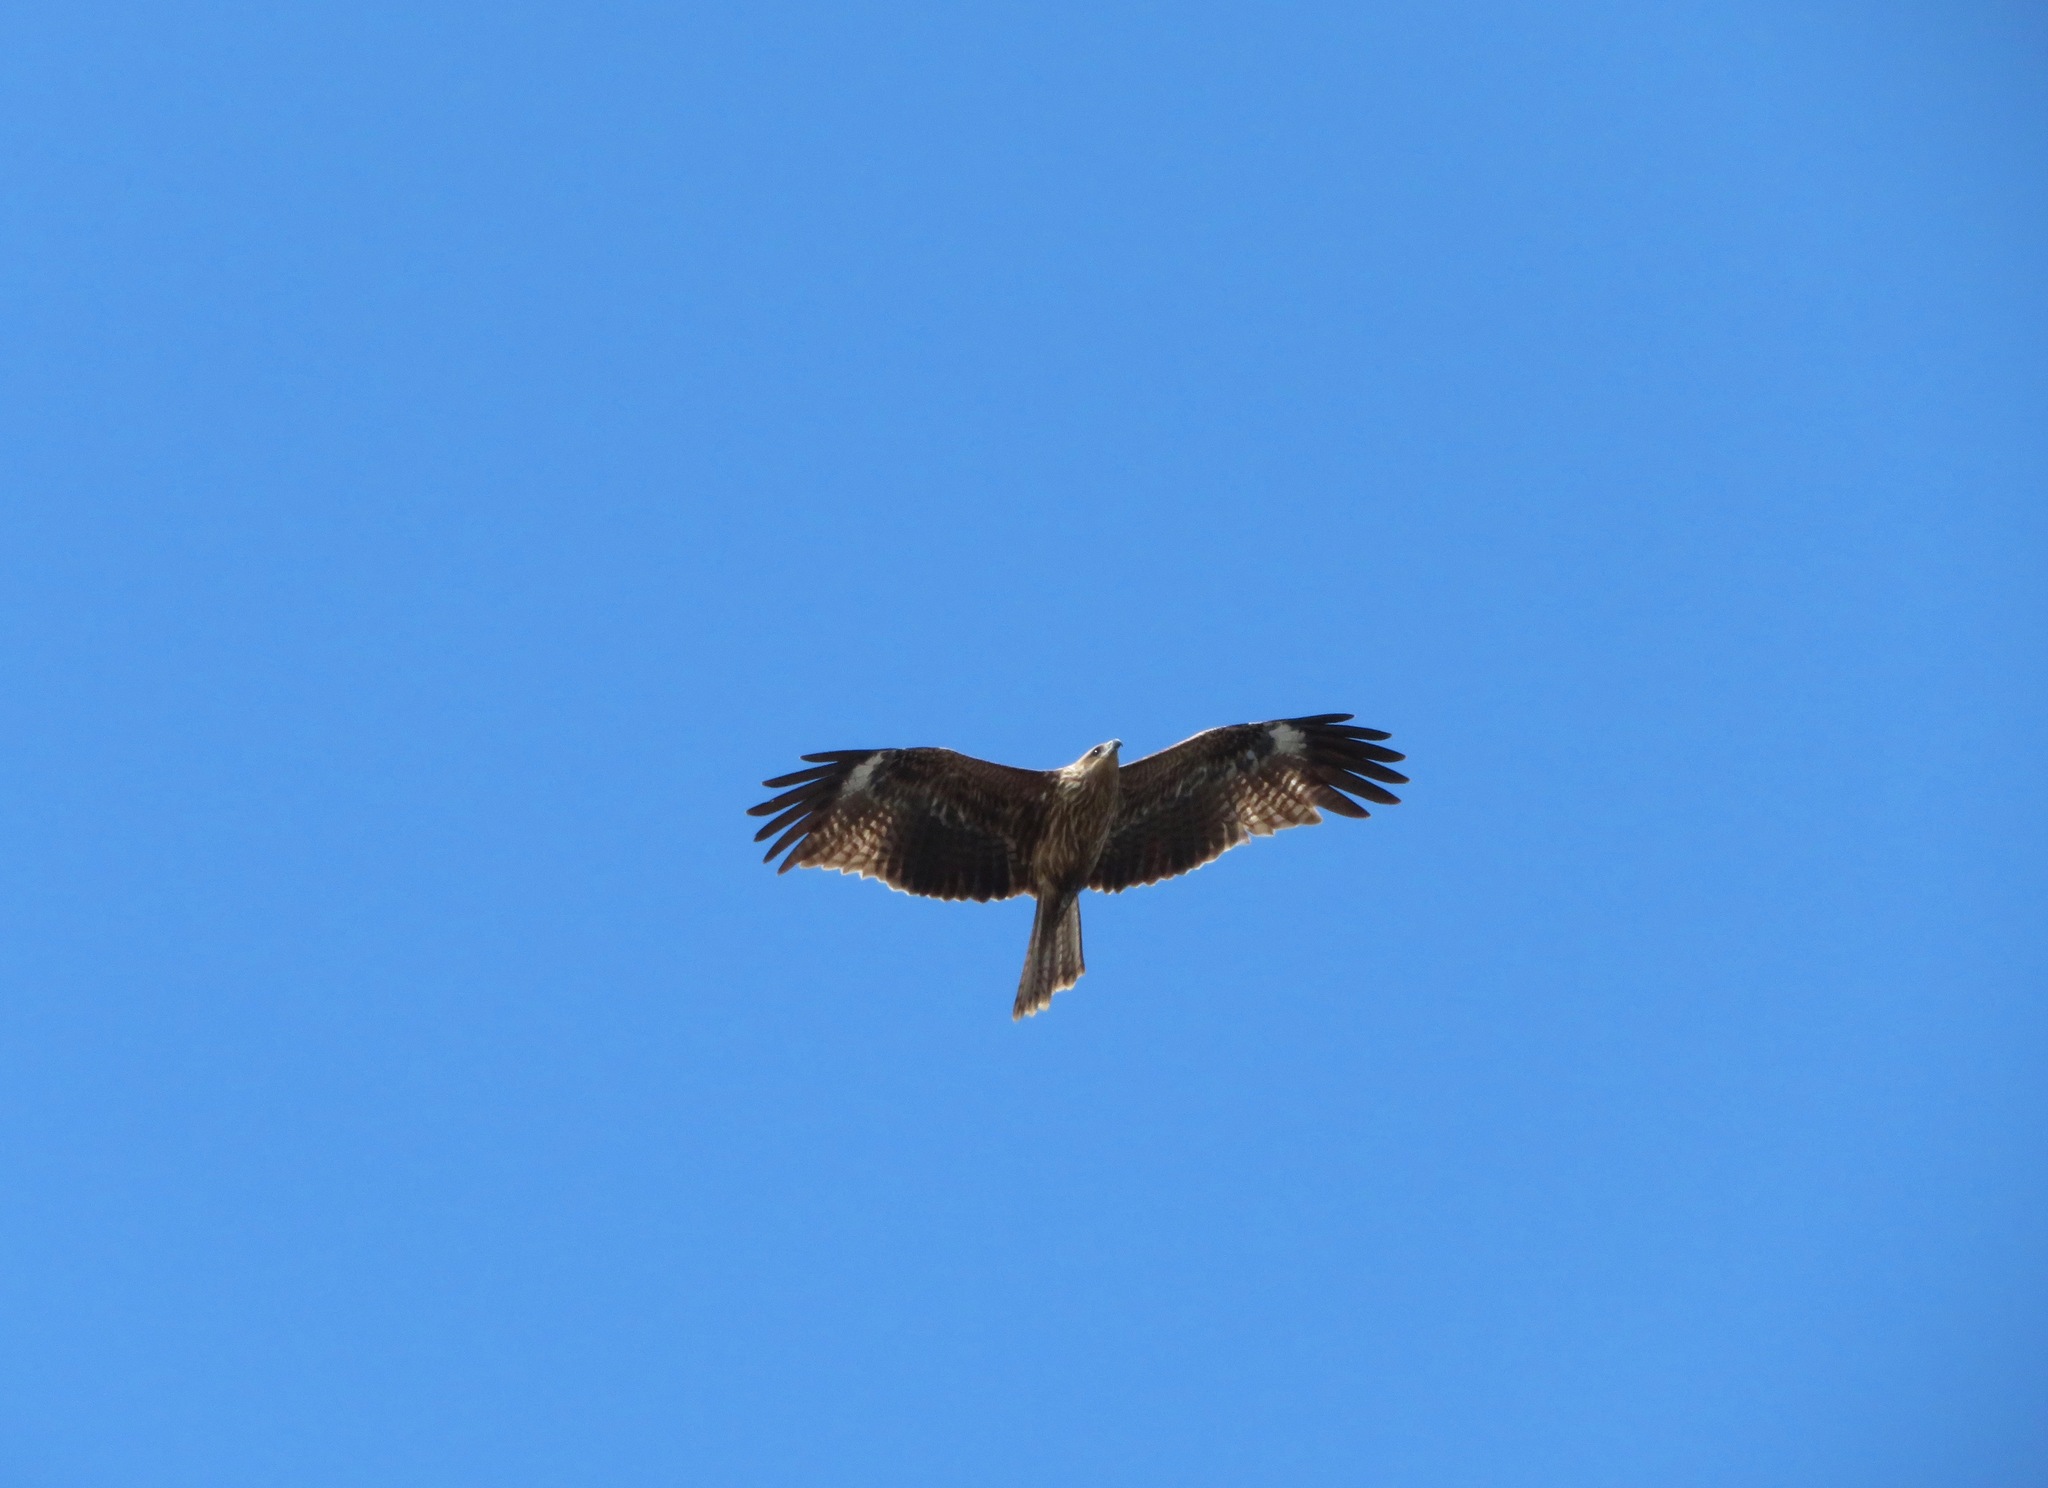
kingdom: Animalia
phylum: Chordata
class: Aves
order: Accipitriformes
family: Accipitridae
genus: Milvus
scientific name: Milvus migrans
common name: Black kite
